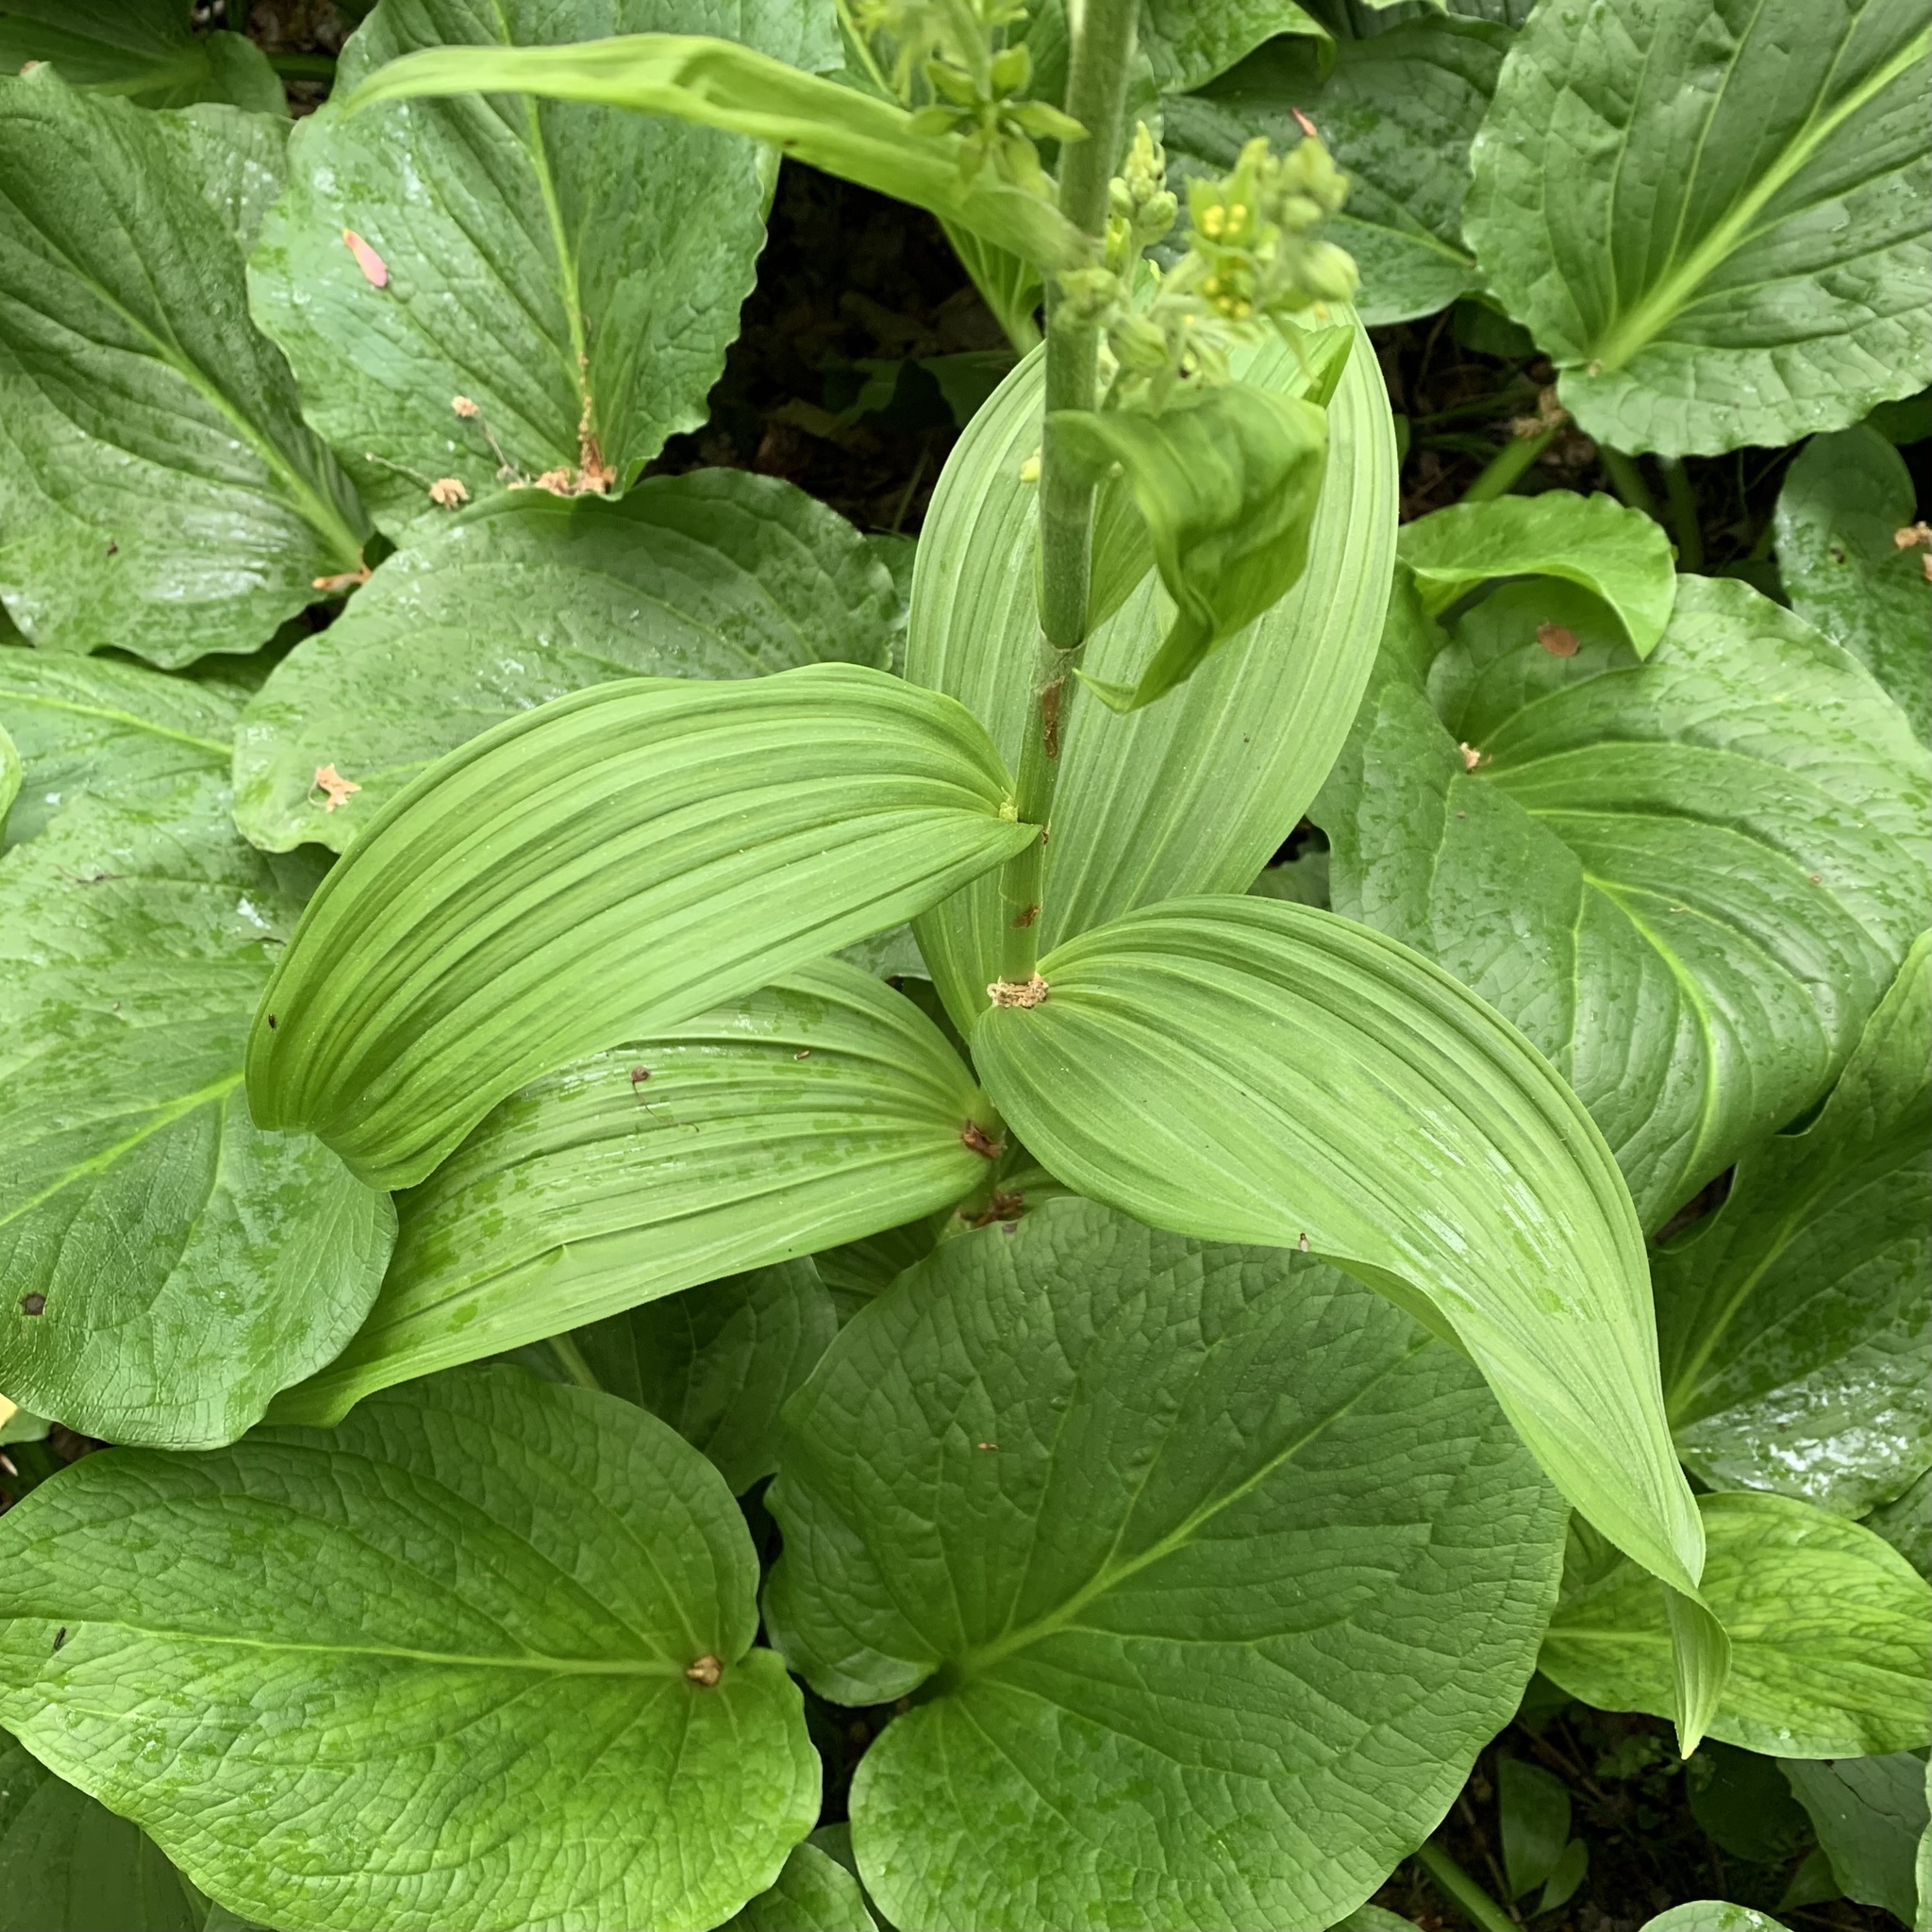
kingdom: Plantae
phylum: Tracheophyta
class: Liliopsida
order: Liliales
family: Melanthiaceae
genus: Veratrum
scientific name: Veratrum viride
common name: American false hellebore
